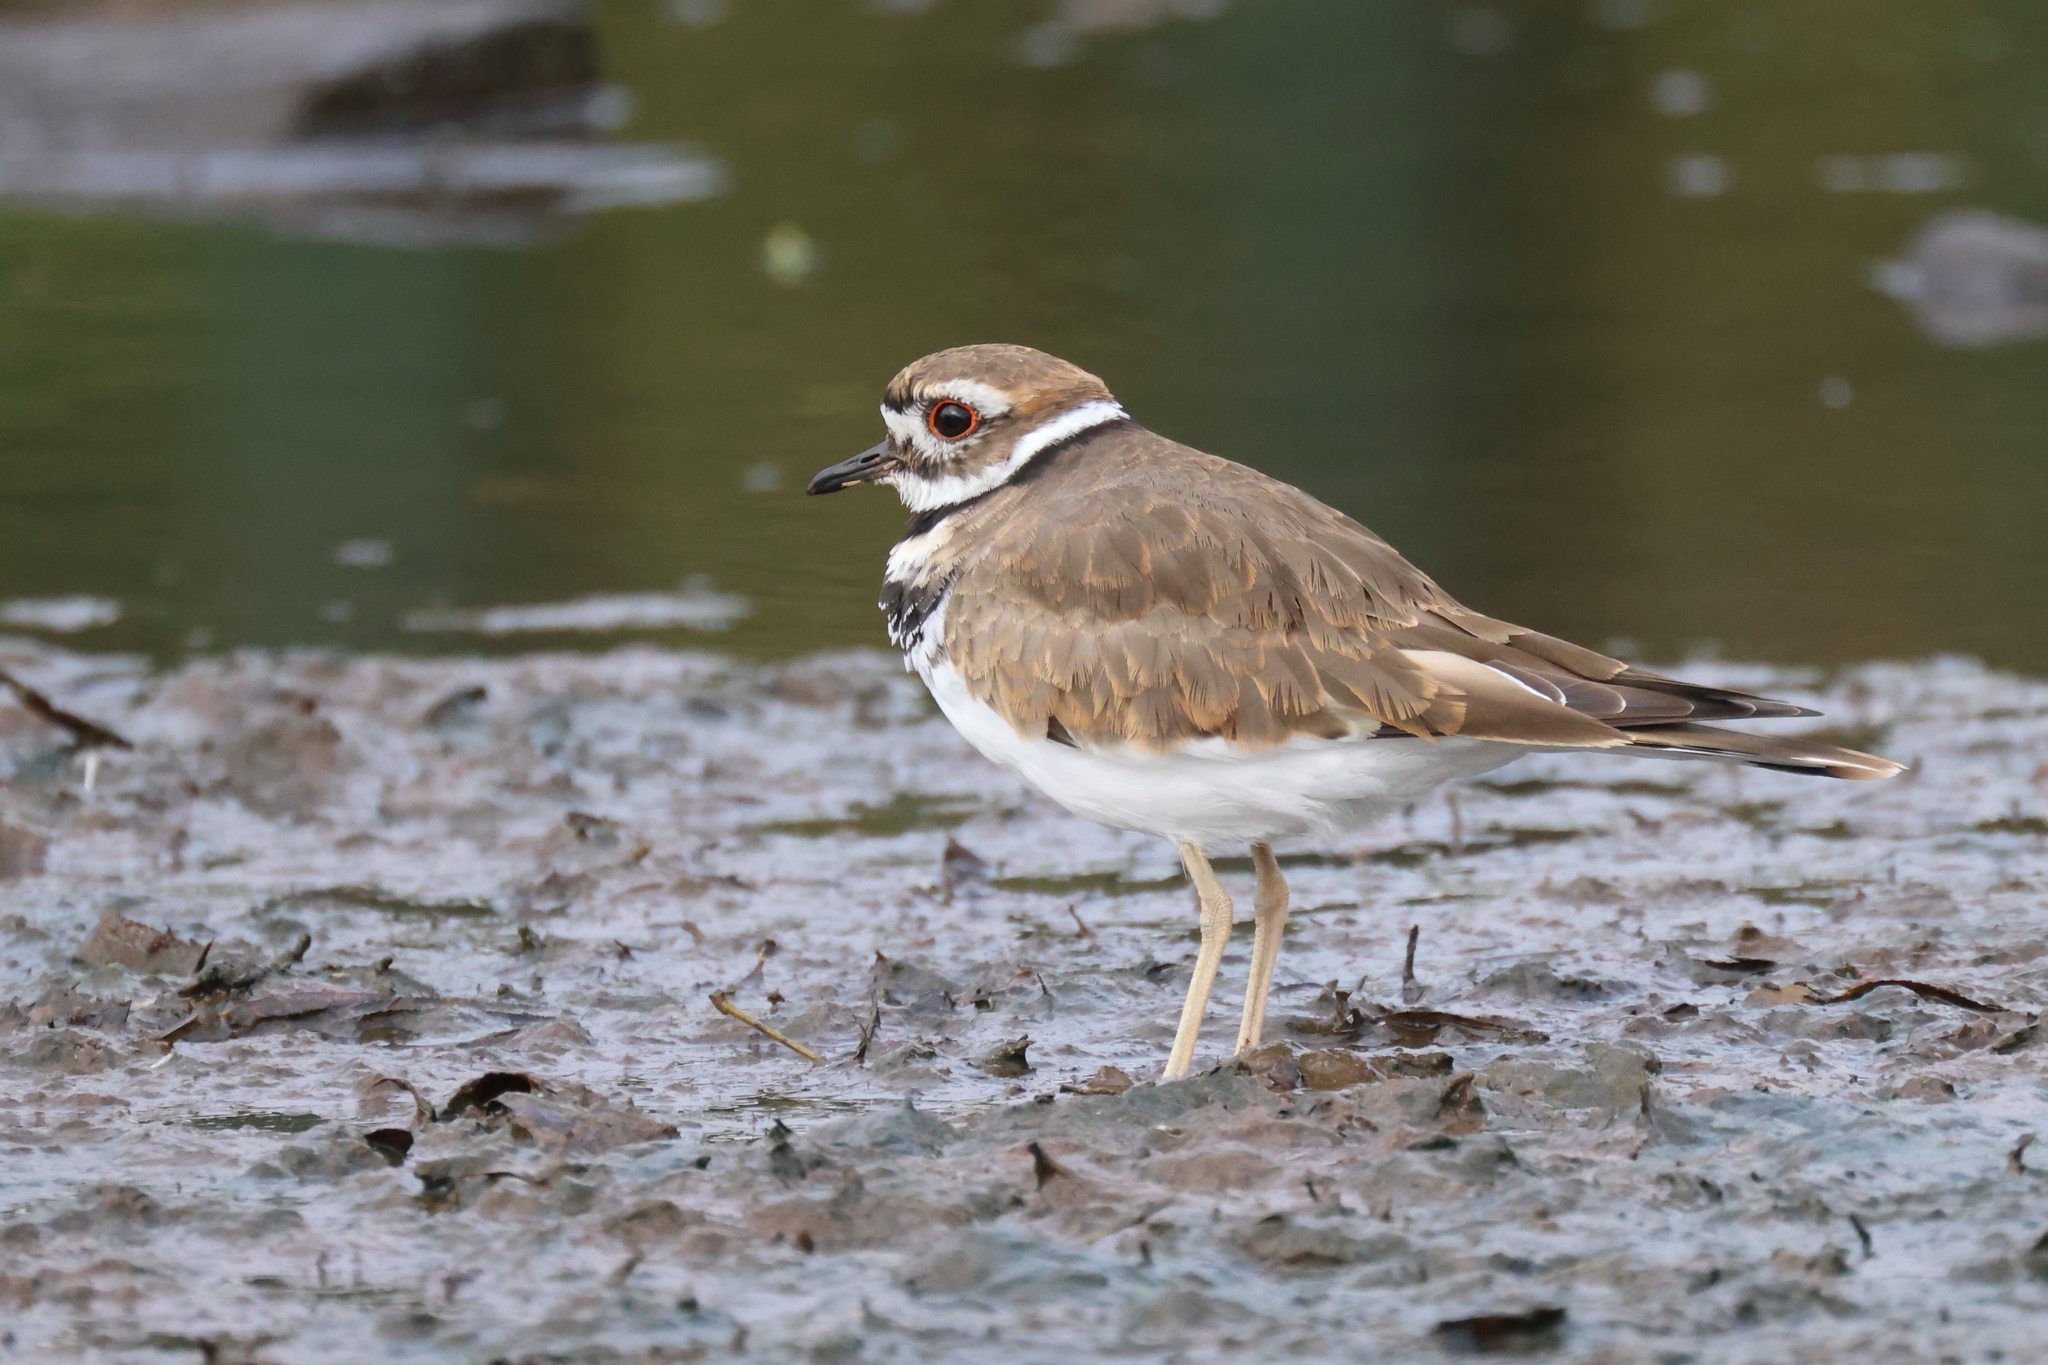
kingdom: Animalia
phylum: Chordata
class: Aves
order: Charadriiformes
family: Charadriidae
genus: Charadrius
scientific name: Charadrius vociferus
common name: Killdeer
